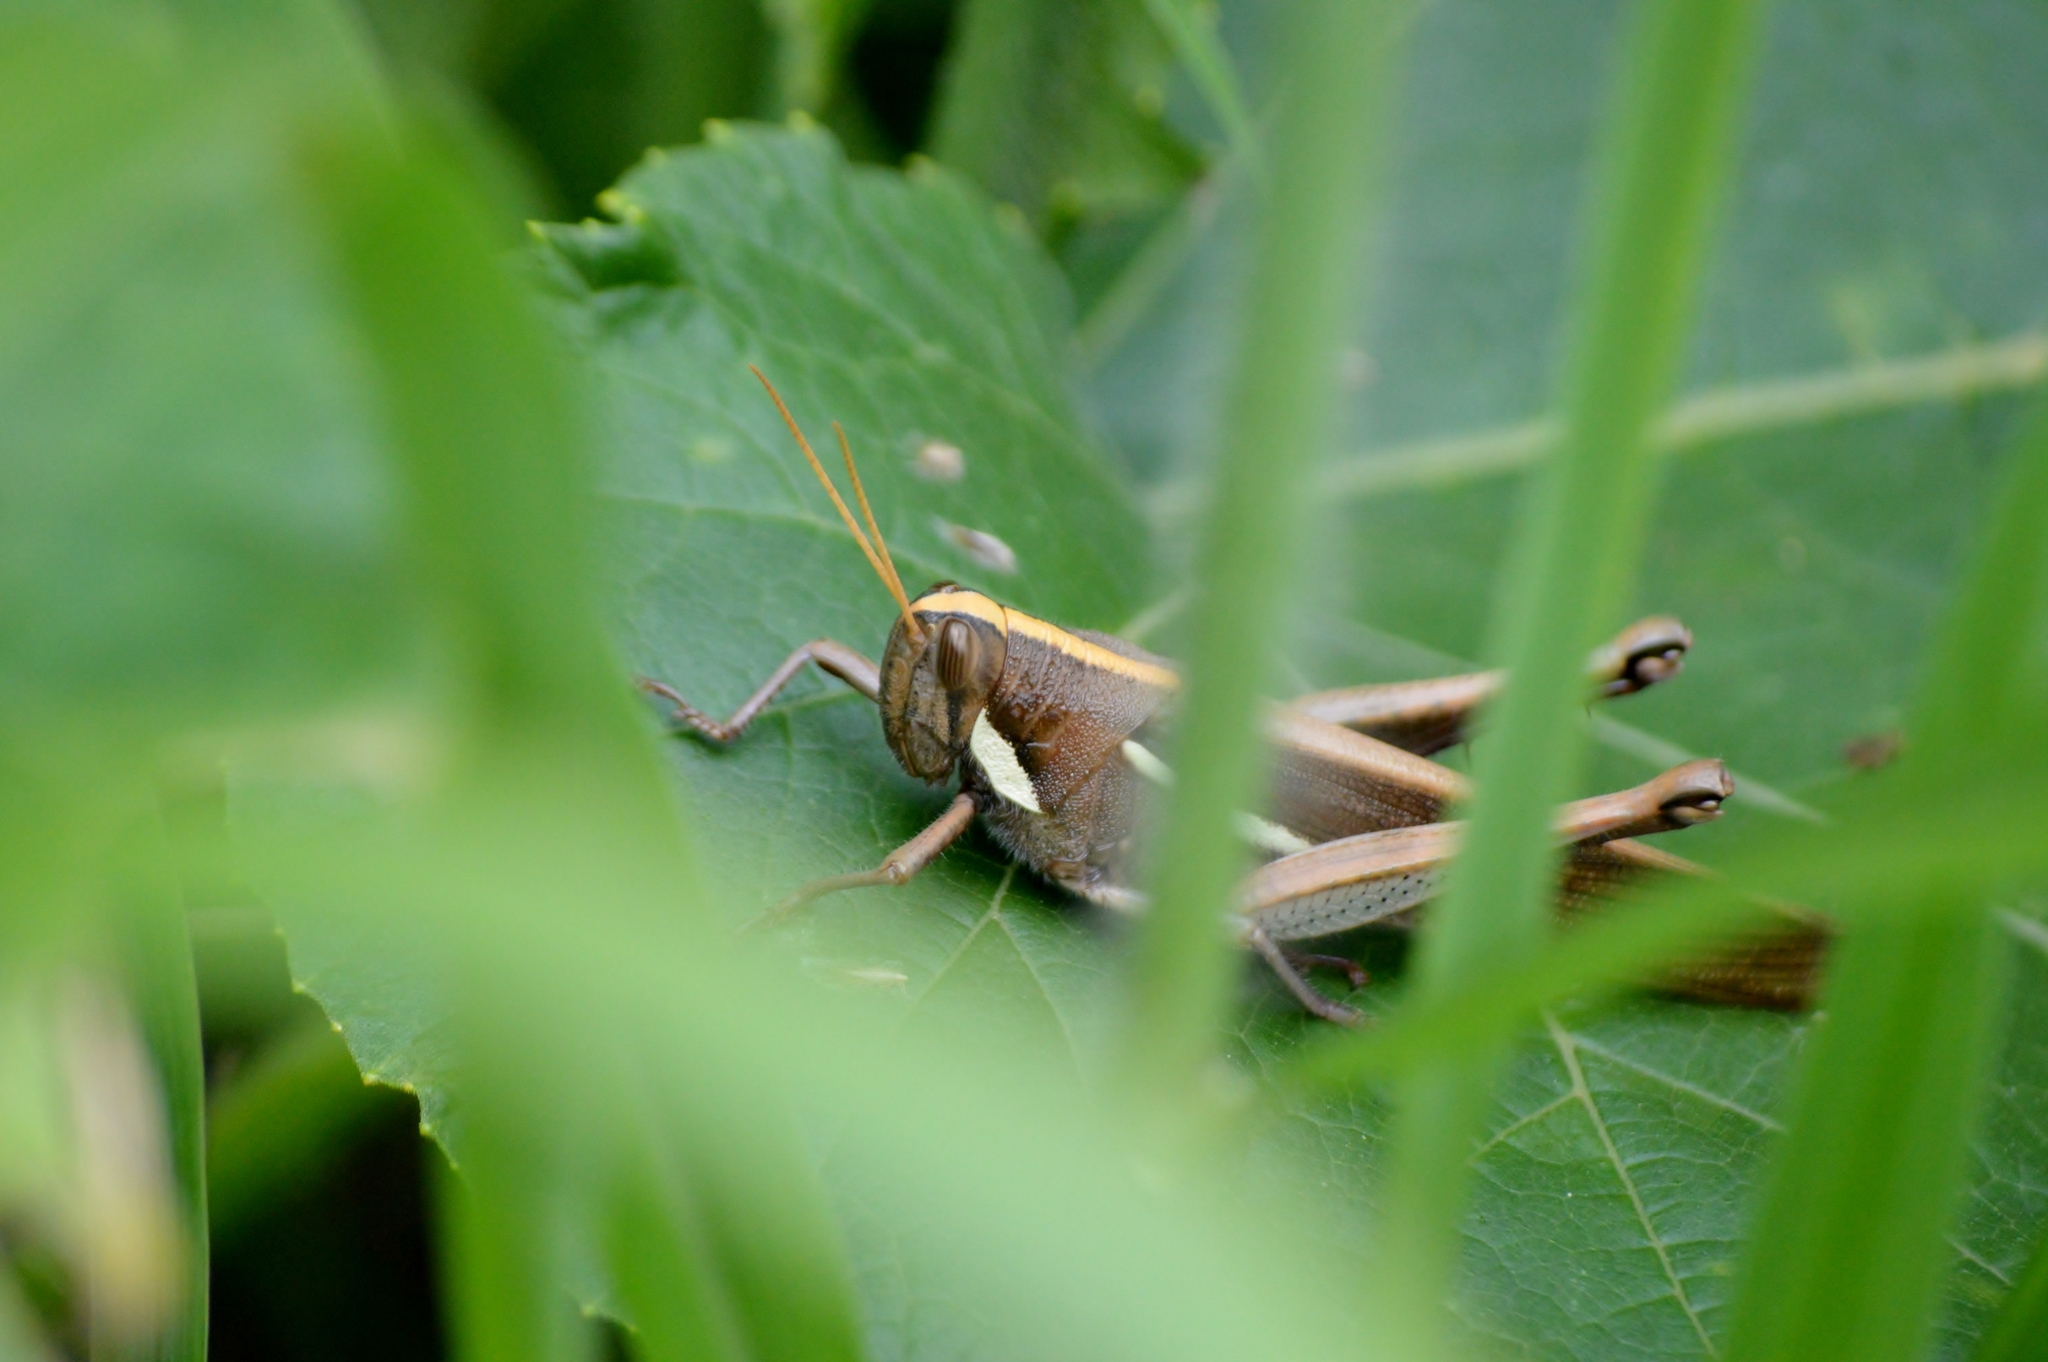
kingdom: Animalia
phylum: Arthropoda
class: Insecta
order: Orthoptera
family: Acrididae
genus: Schistocerca
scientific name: Schistocerca flavofasciata
